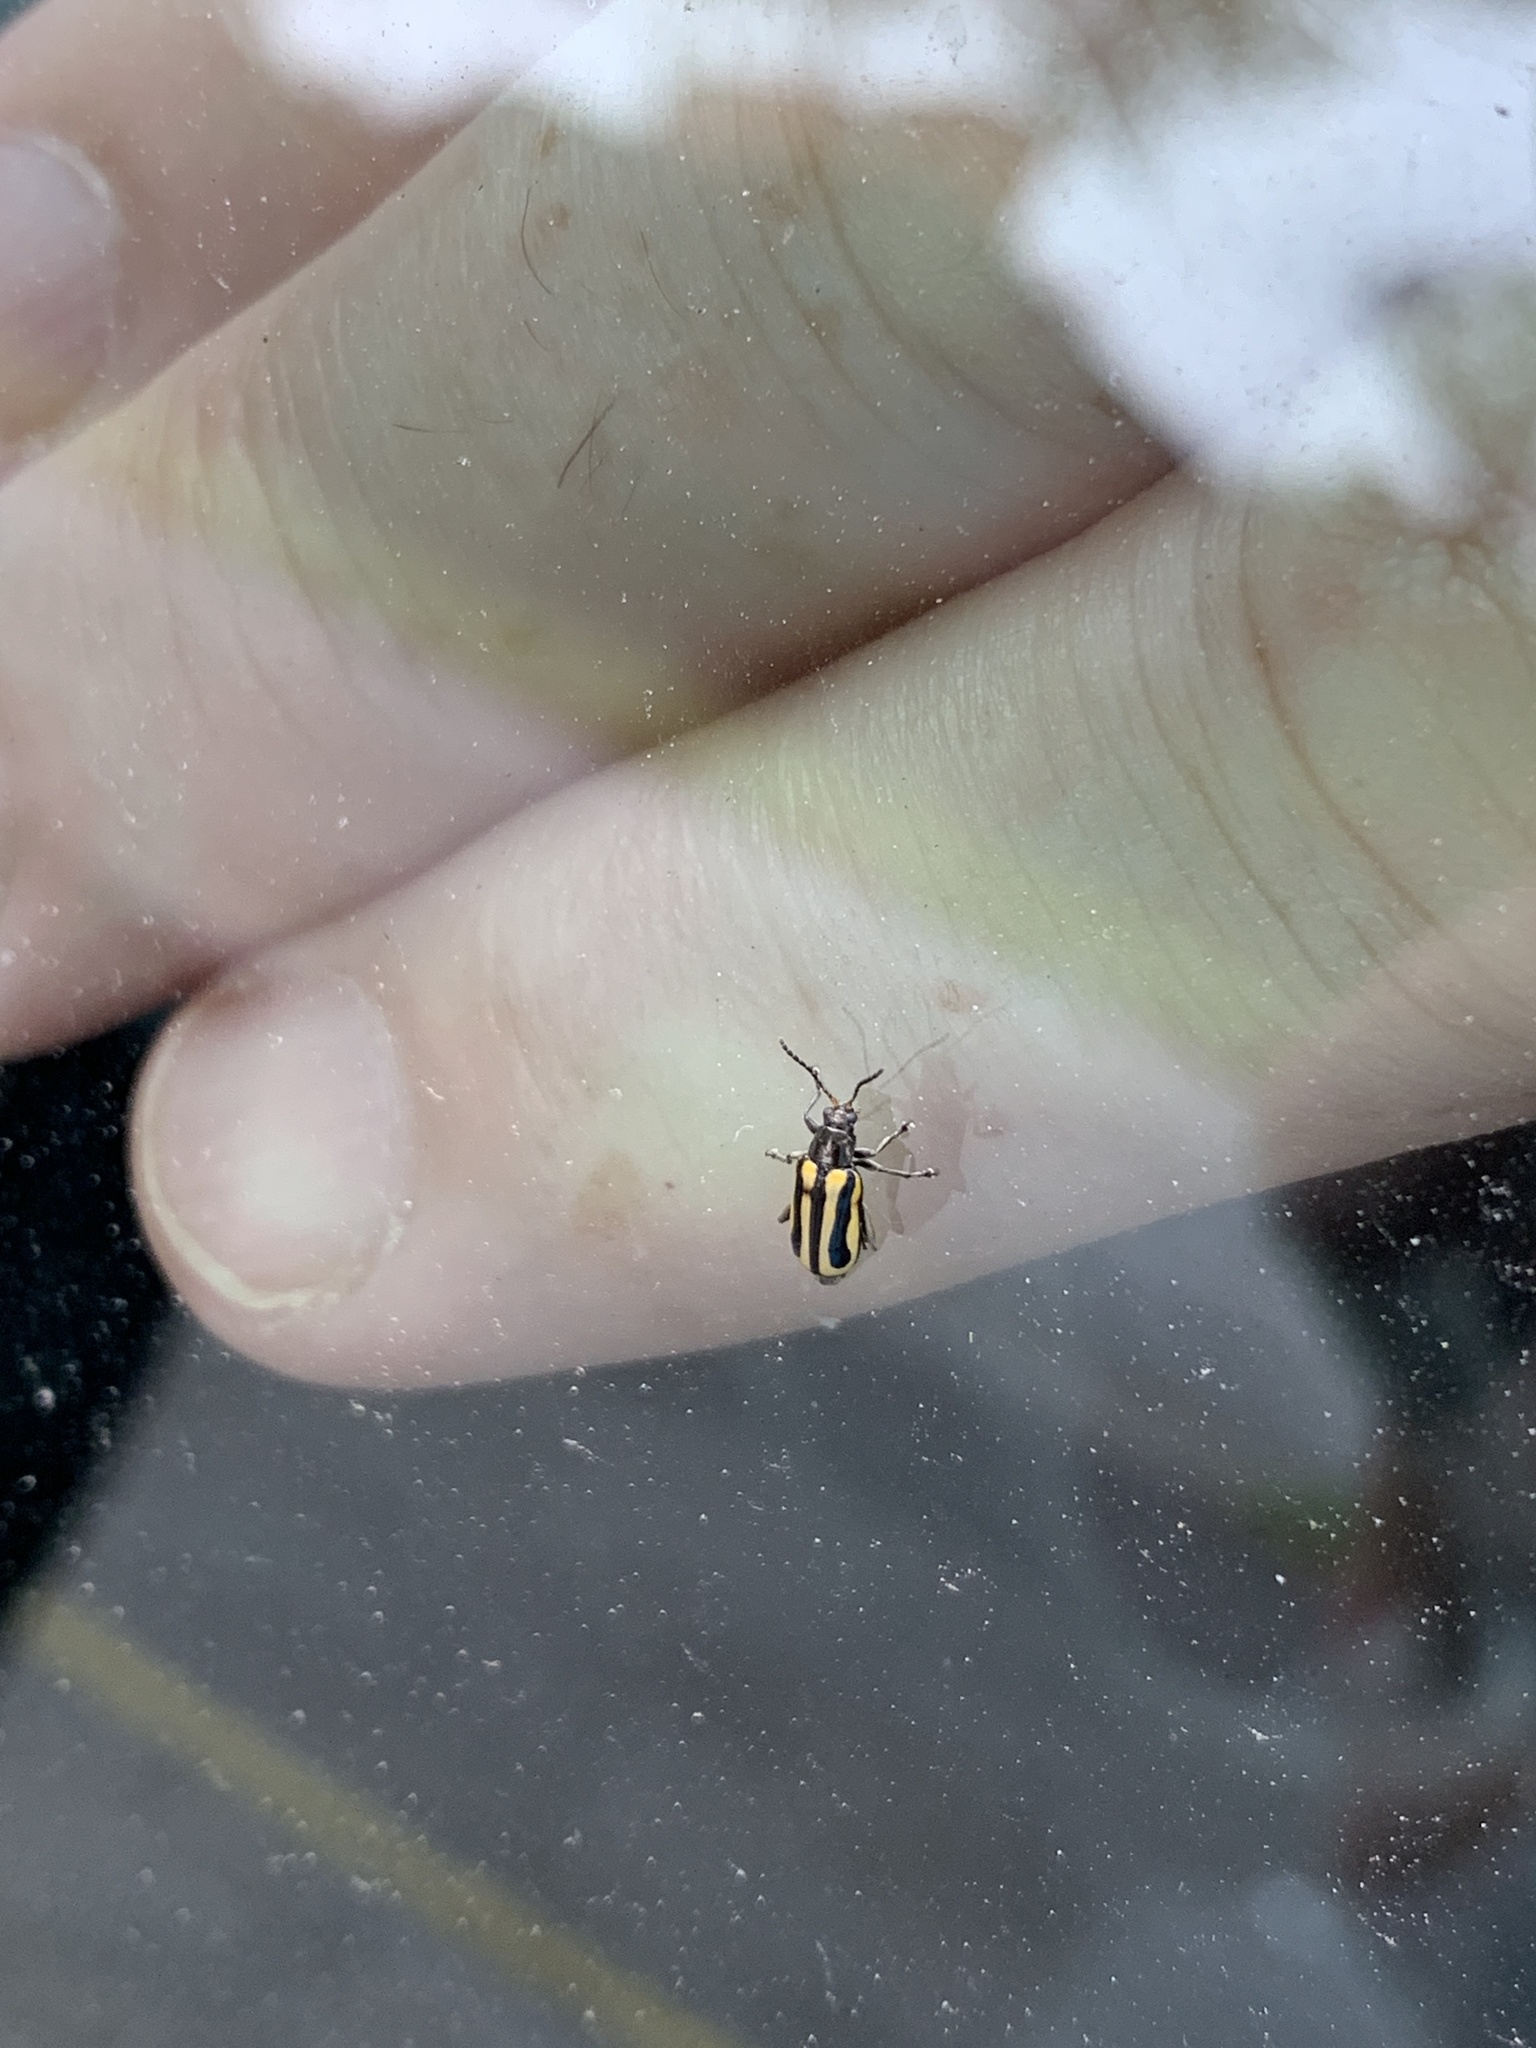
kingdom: Animalia
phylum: Arthropoda
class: Insecta
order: Coleoptera
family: Chrysomelidae
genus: Agasicles
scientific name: Agasicles hygrophila
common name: Alligatorweed flea beetle
